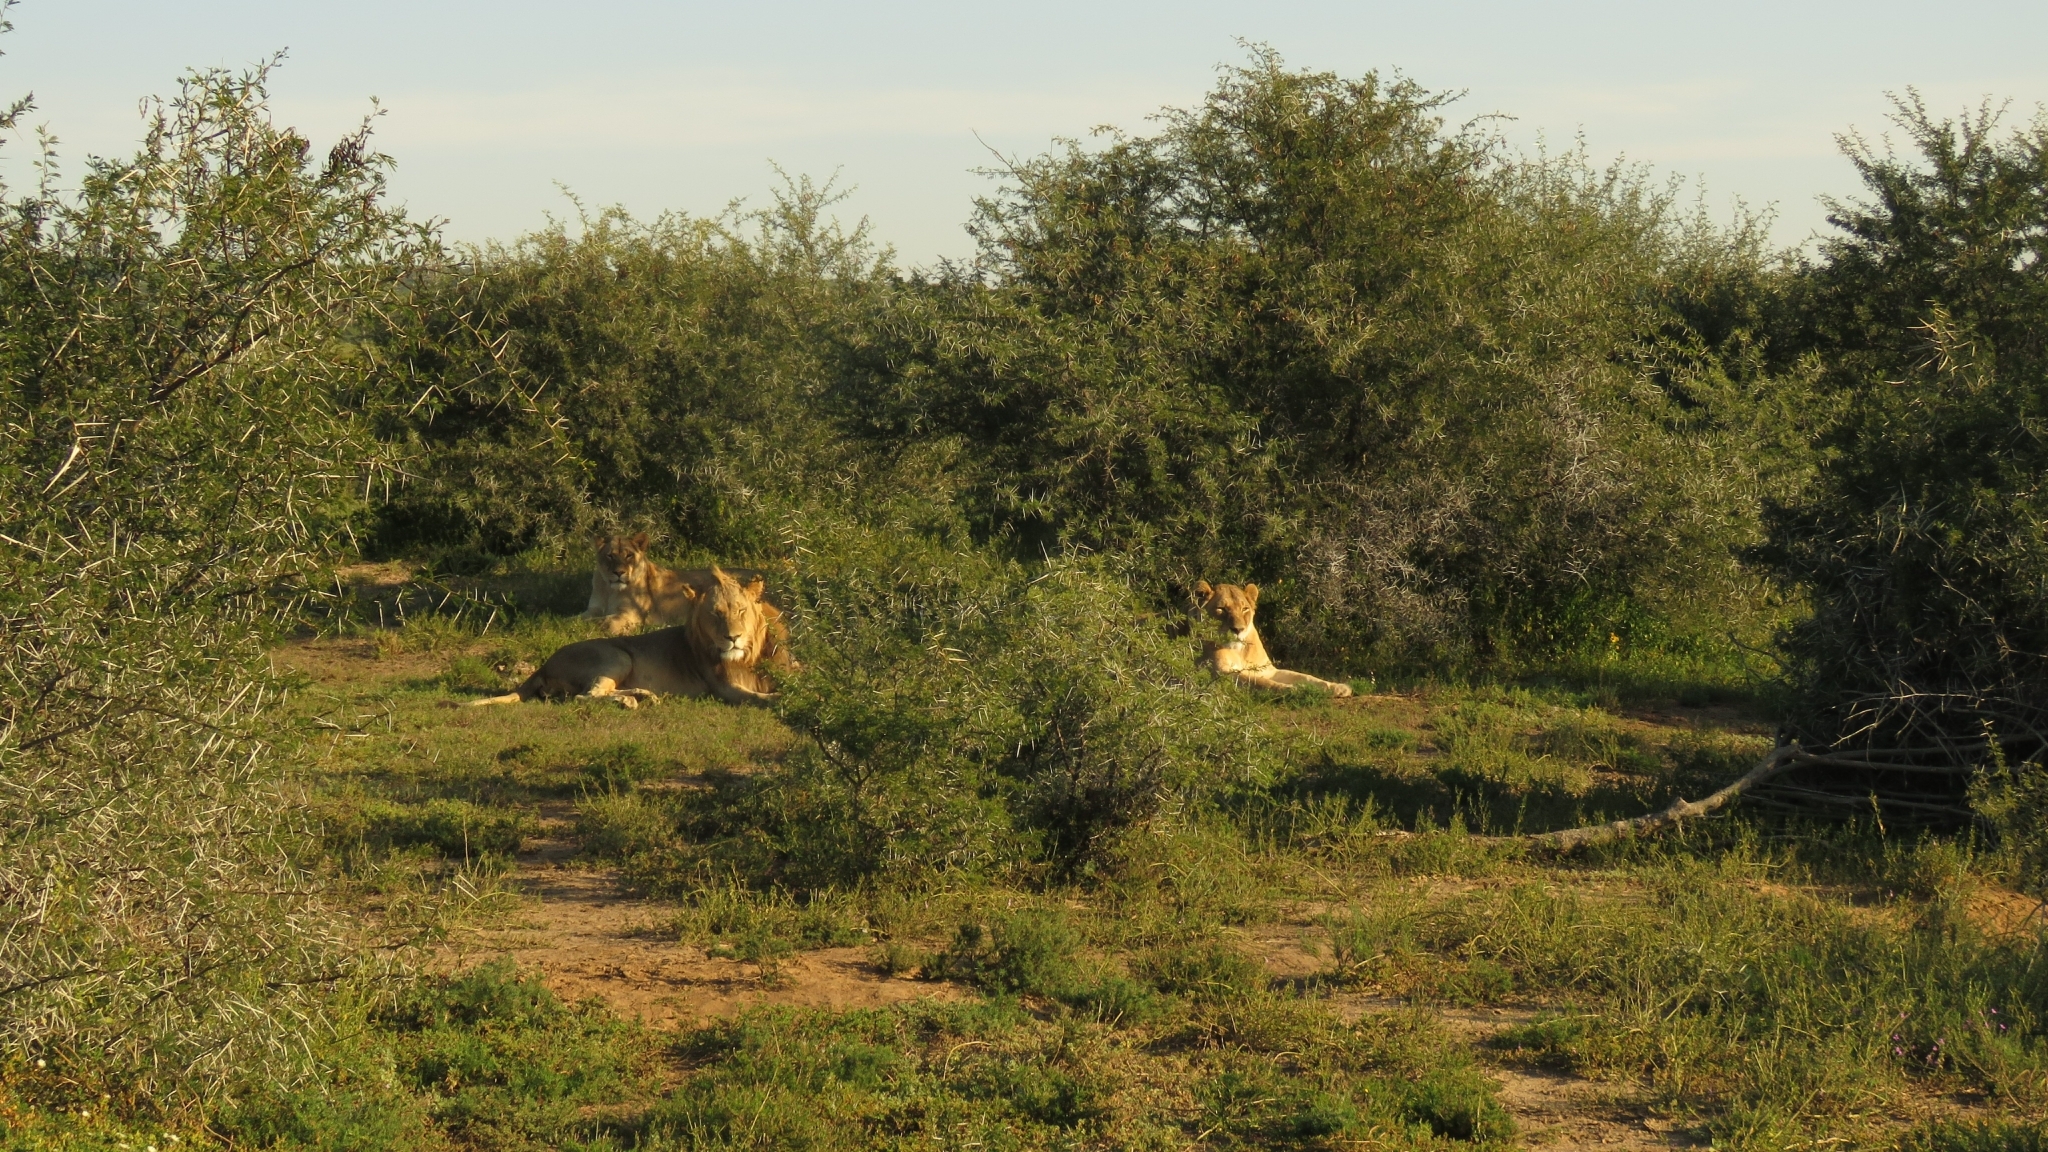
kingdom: Animalia
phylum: Chordata
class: Mammalia
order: Carnivora
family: Felidae
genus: Panthera
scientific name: Panthera leo
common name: Lion
